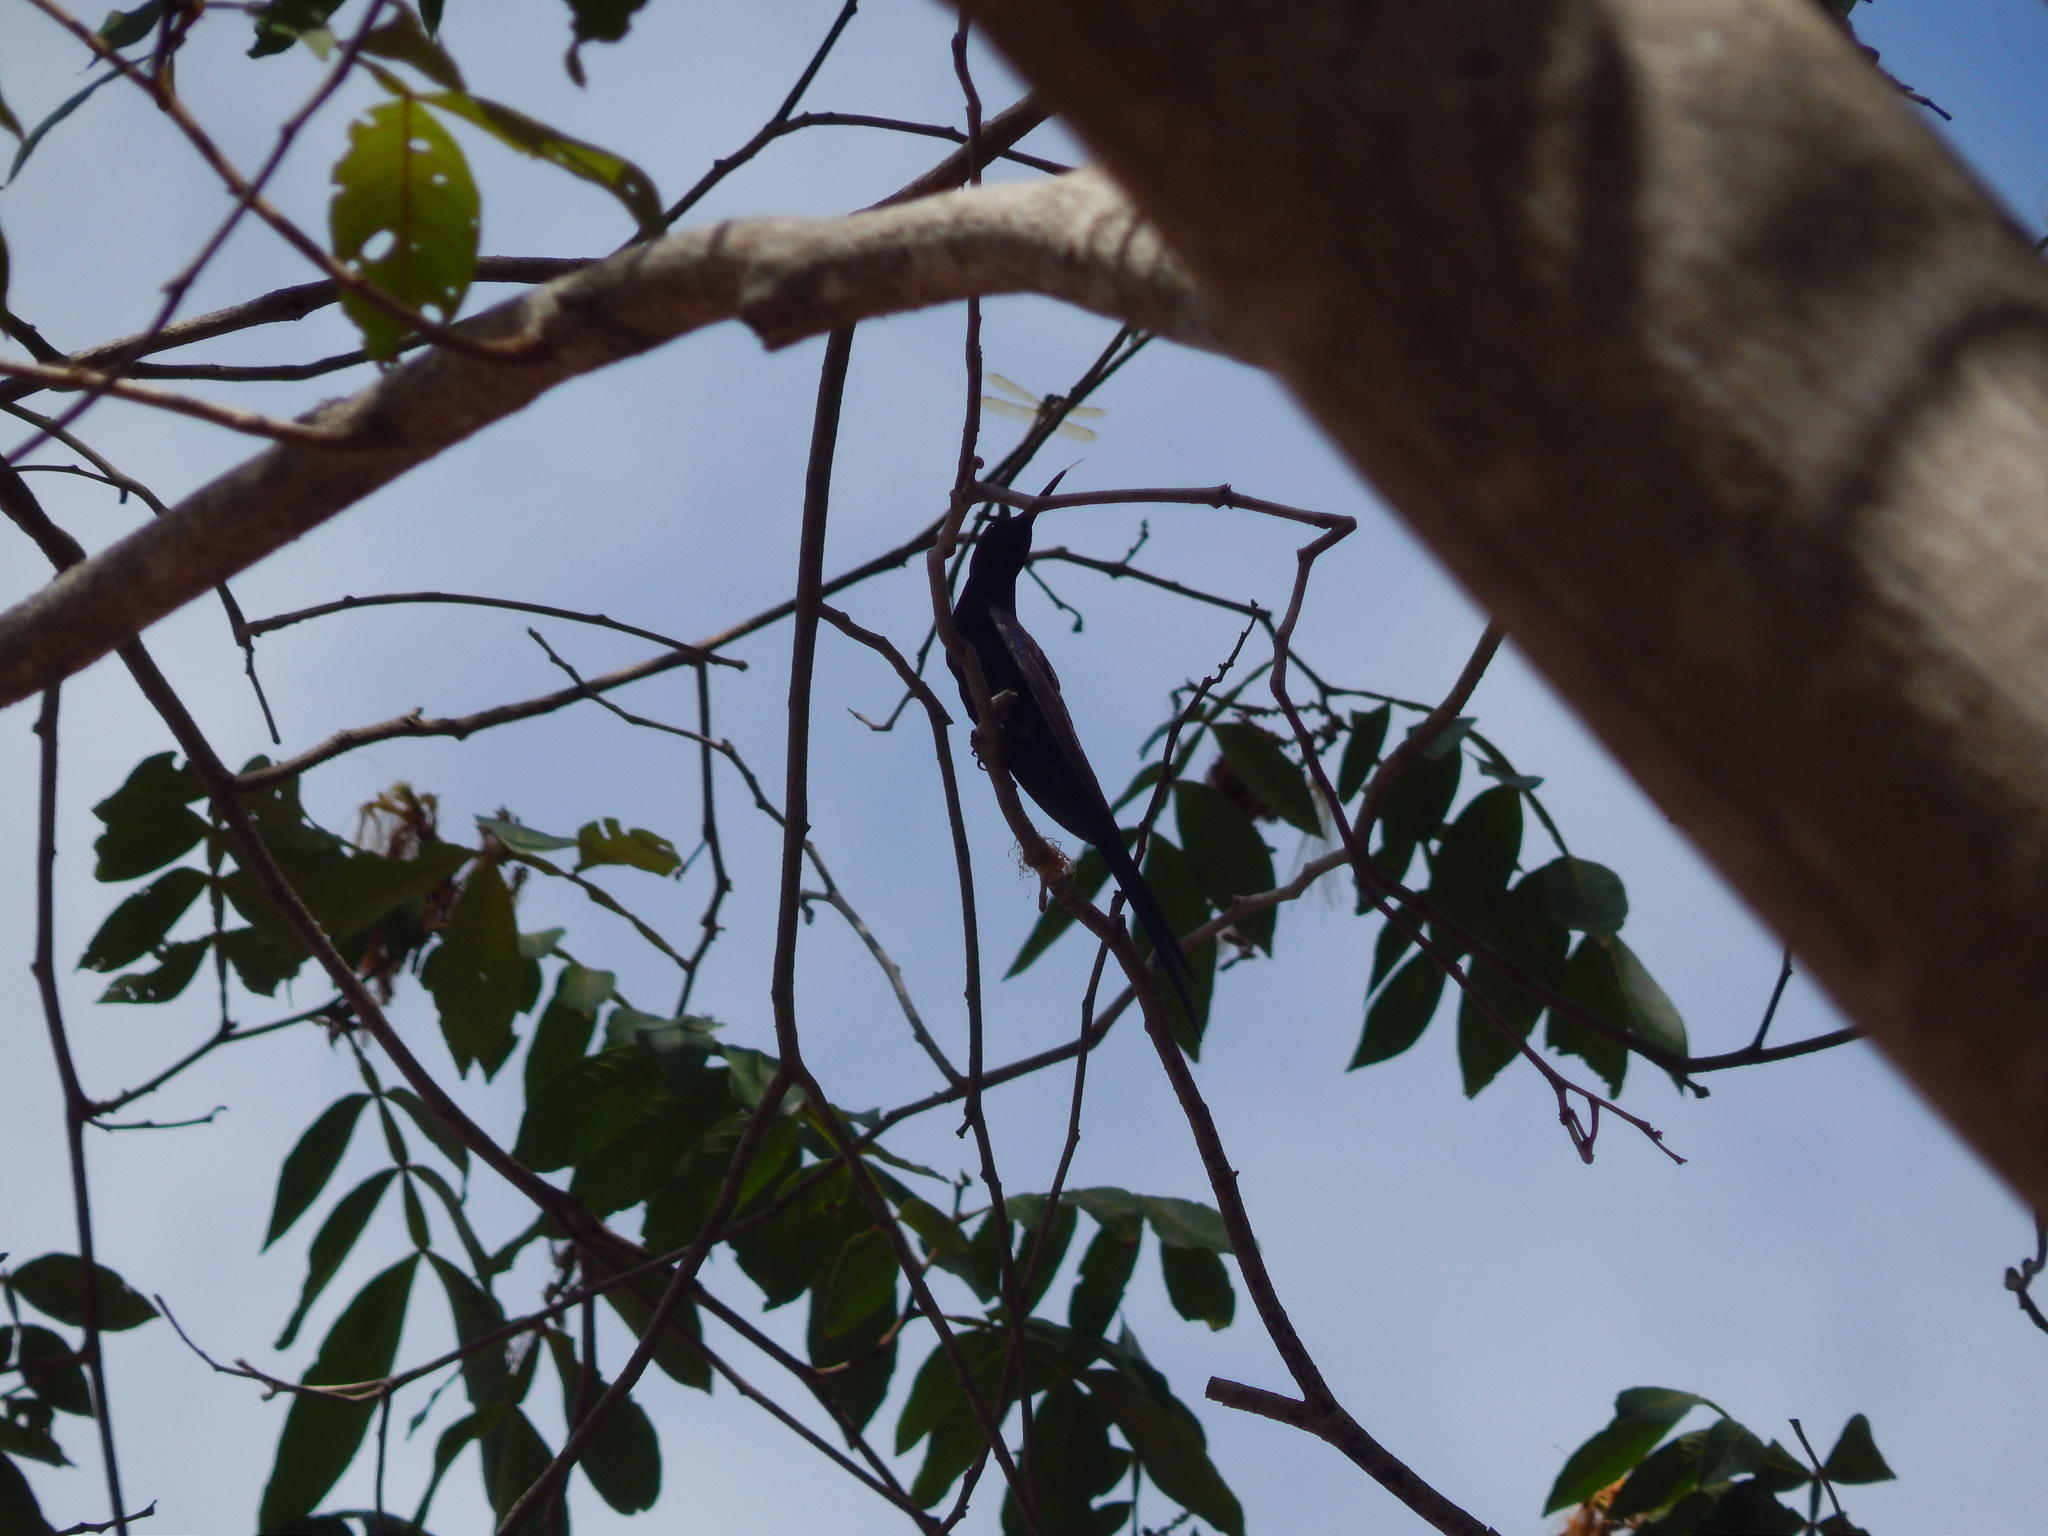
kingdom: Animalia
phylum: Chordata
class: Aves
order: Apodiformes
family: Trochilidae
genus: Eupetomena
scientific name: Eupetomena macroura
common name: Swallow-tailed hummingbird
